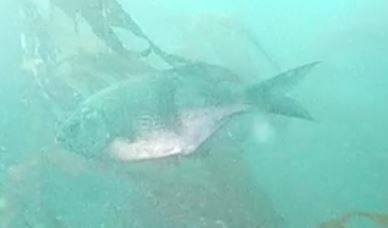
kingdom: Animalia
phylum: Chordata
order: Perciformes
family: Embiotocidae
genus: Rhacochilus
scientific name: Rhacochilus vacca
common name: Pile perch
